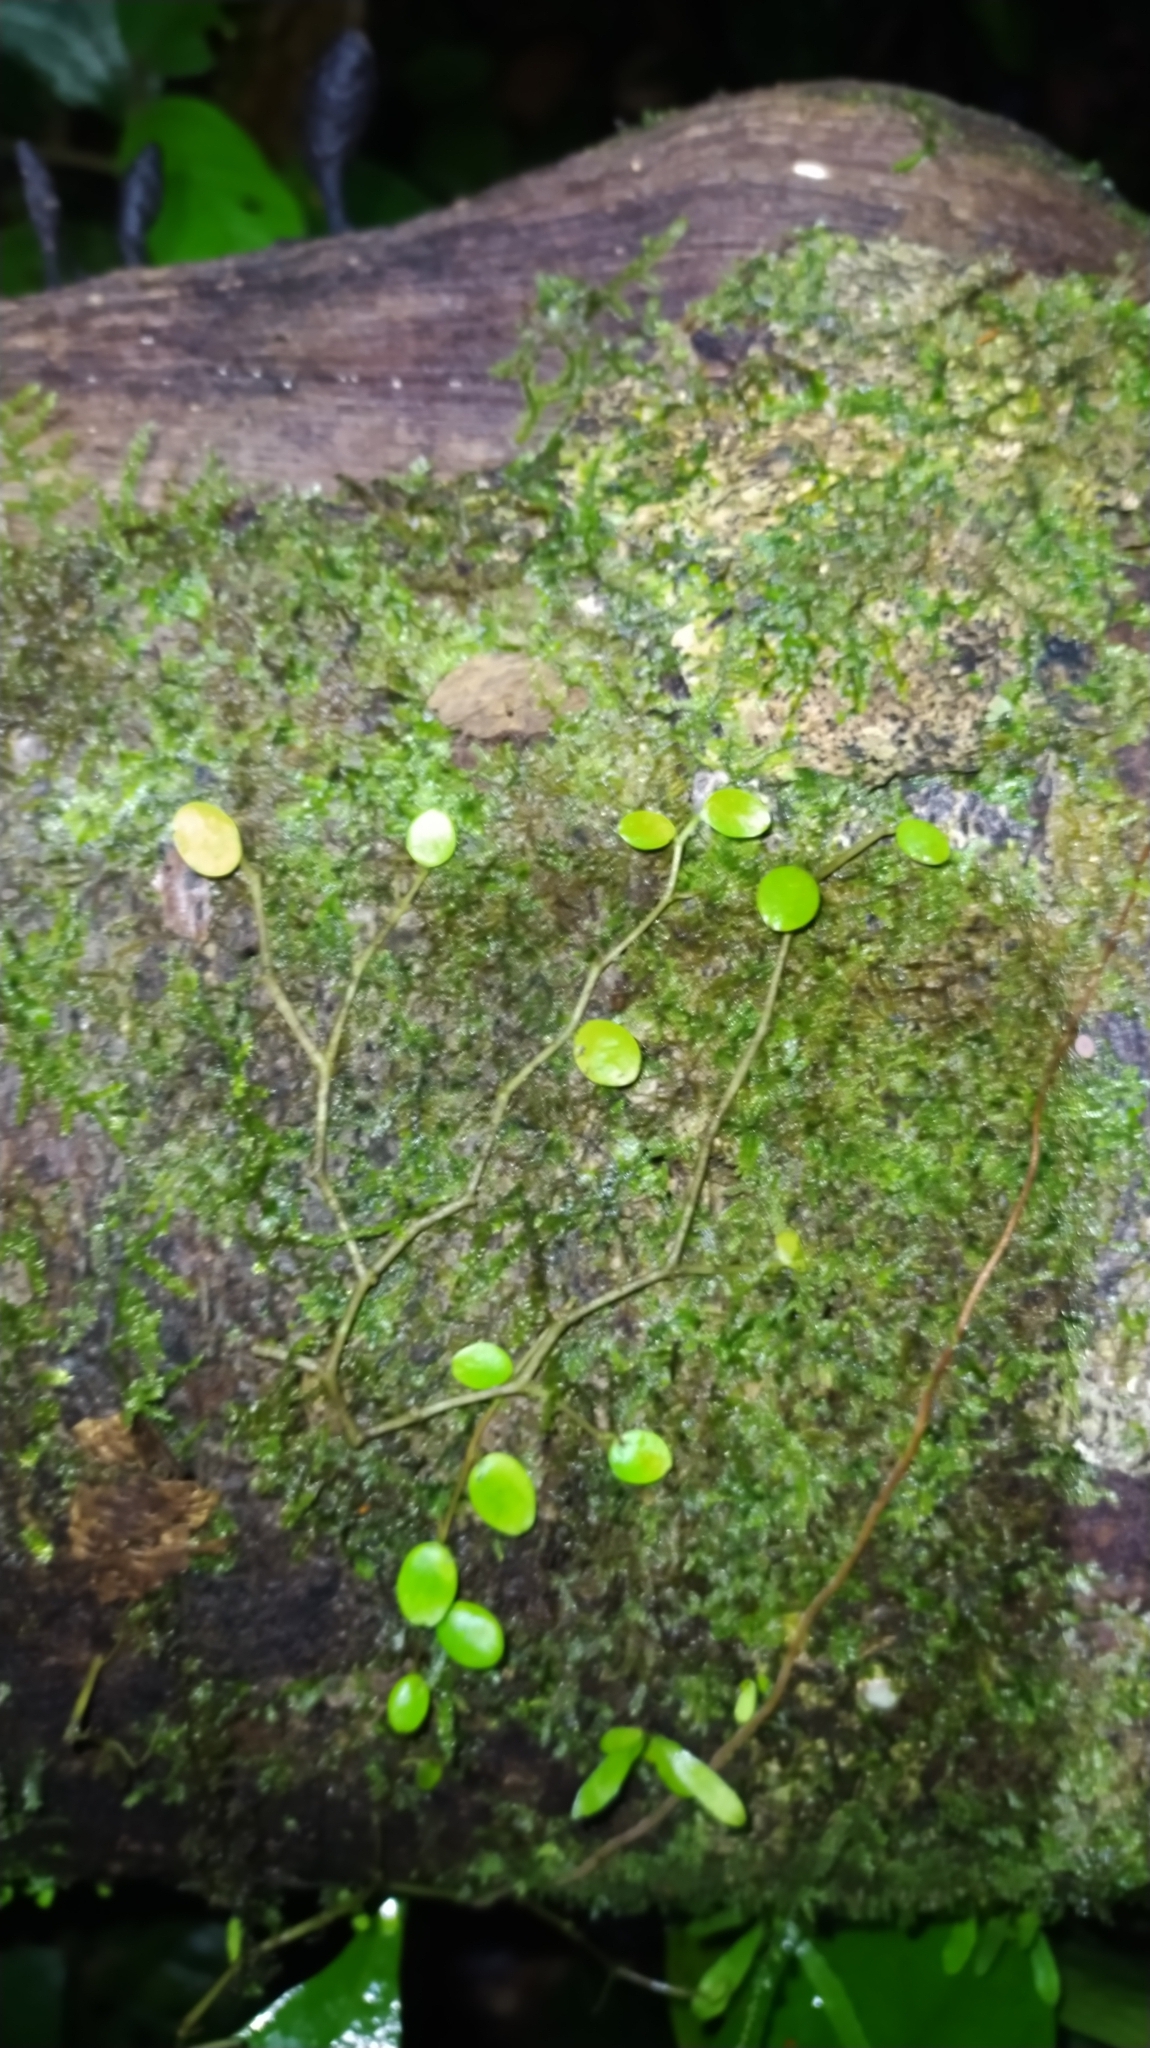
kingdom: Plantae
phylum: Tracheophyta
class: Magnoliopsida
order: Piperales
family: Piperaceae
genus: Peperomia
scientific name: Peperomia rotundifolia
